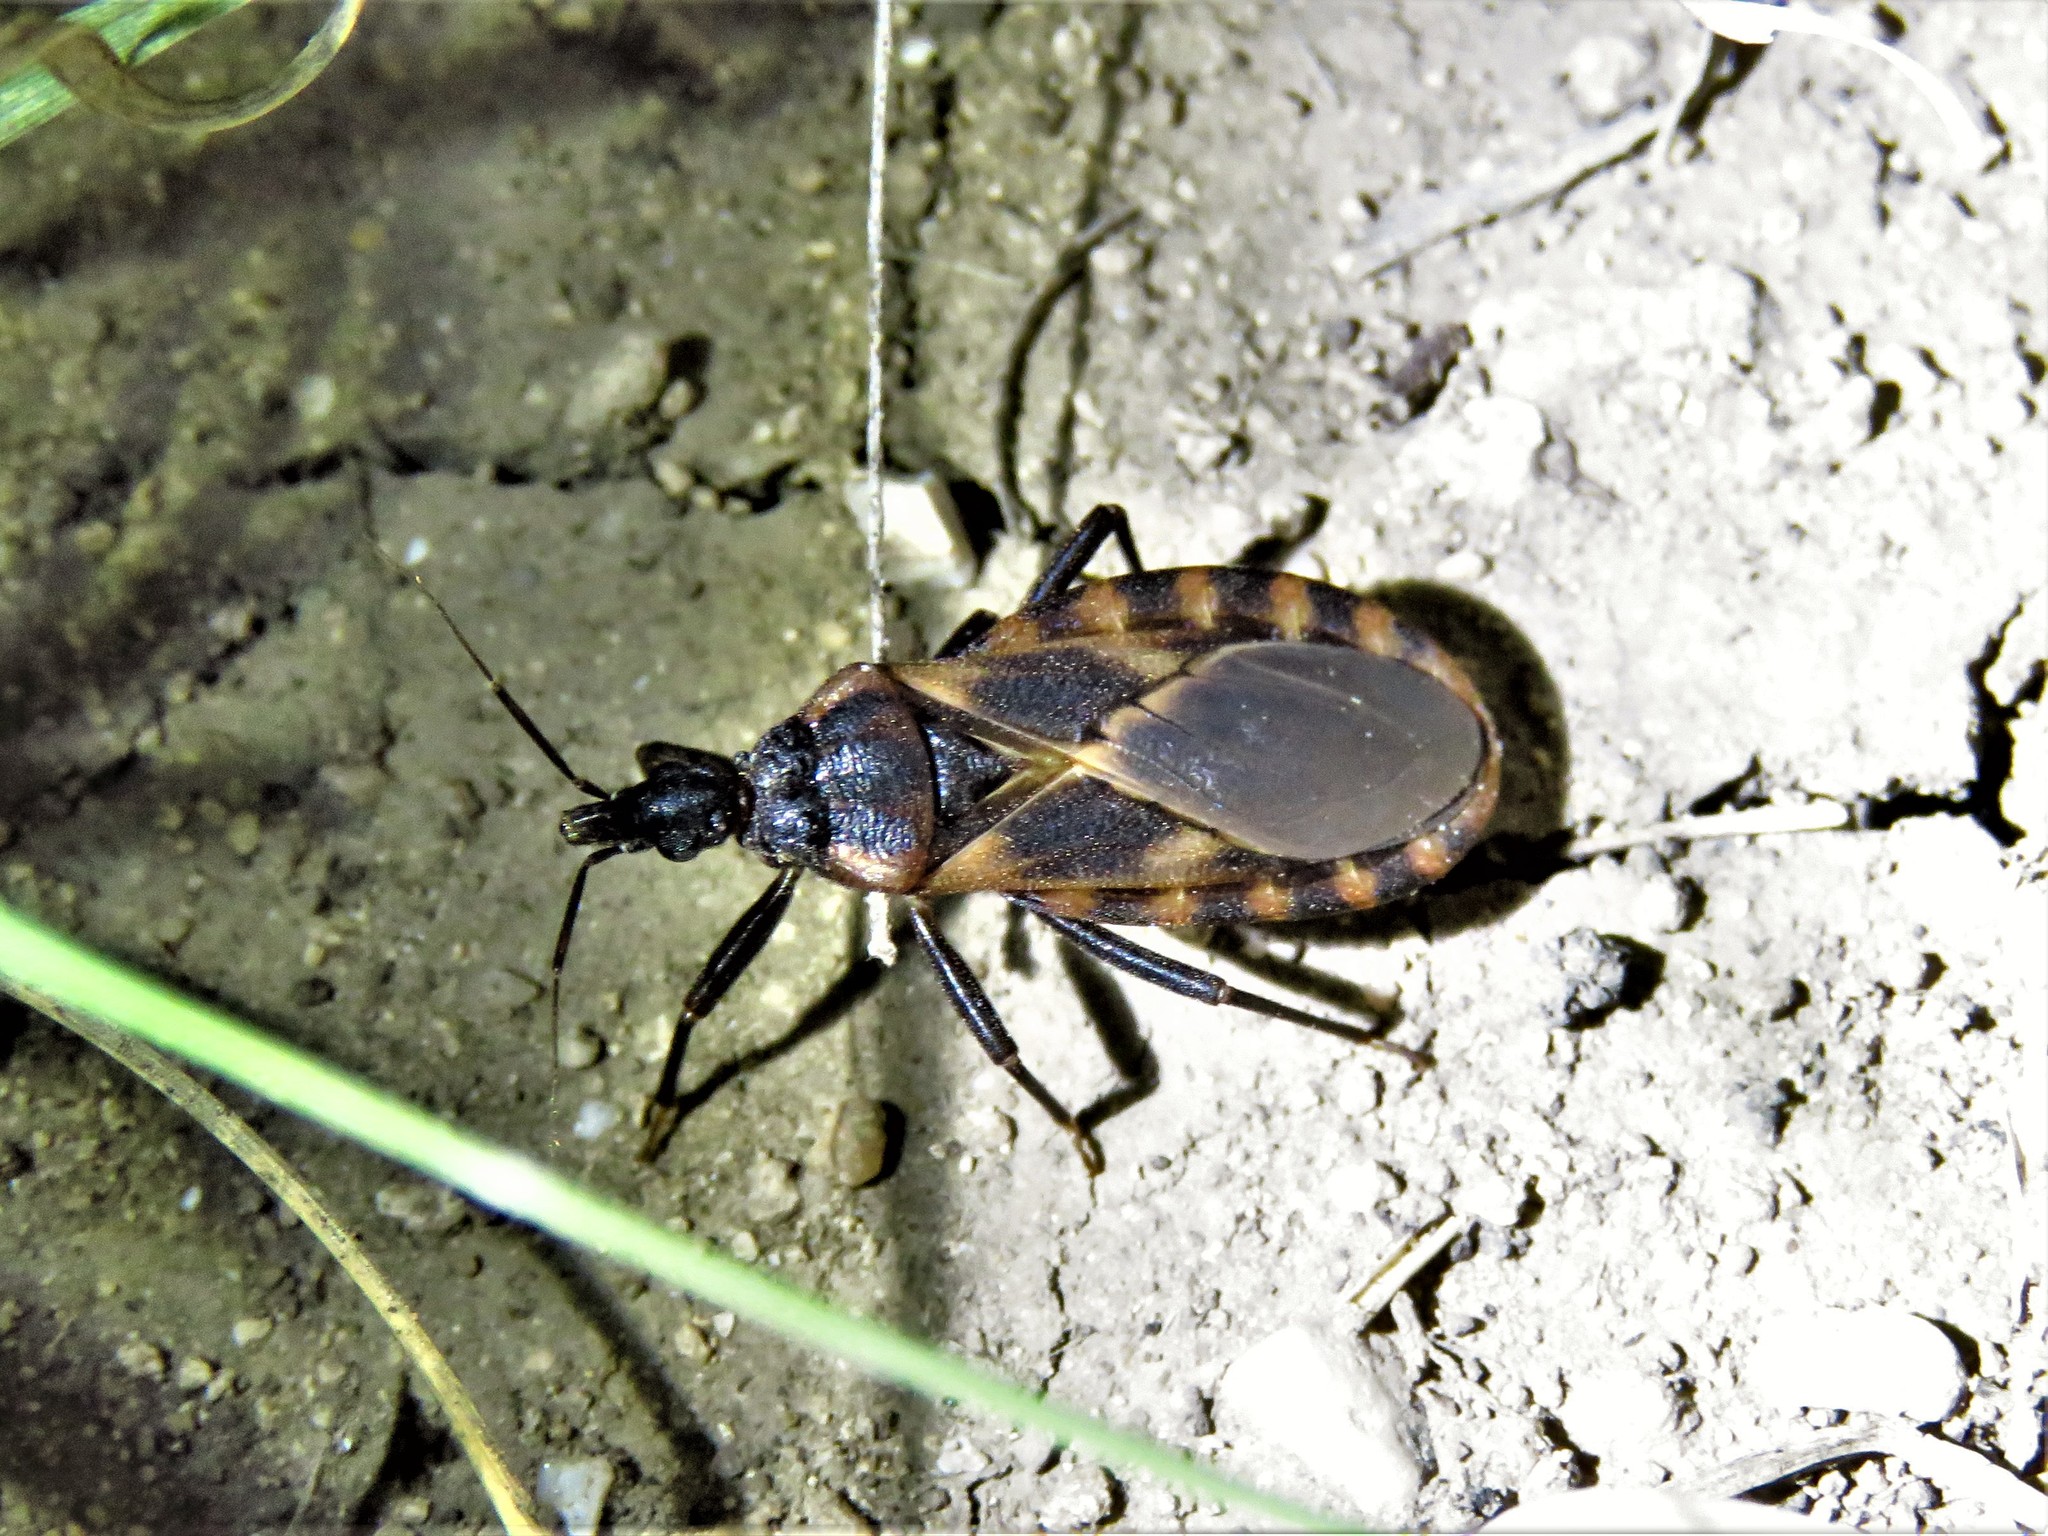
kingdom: Animalia
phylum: Arthropoda
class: Insecta
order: Hemiptera
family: Reduviidae
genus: Triatoma
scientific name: Triatoma lecticularia
